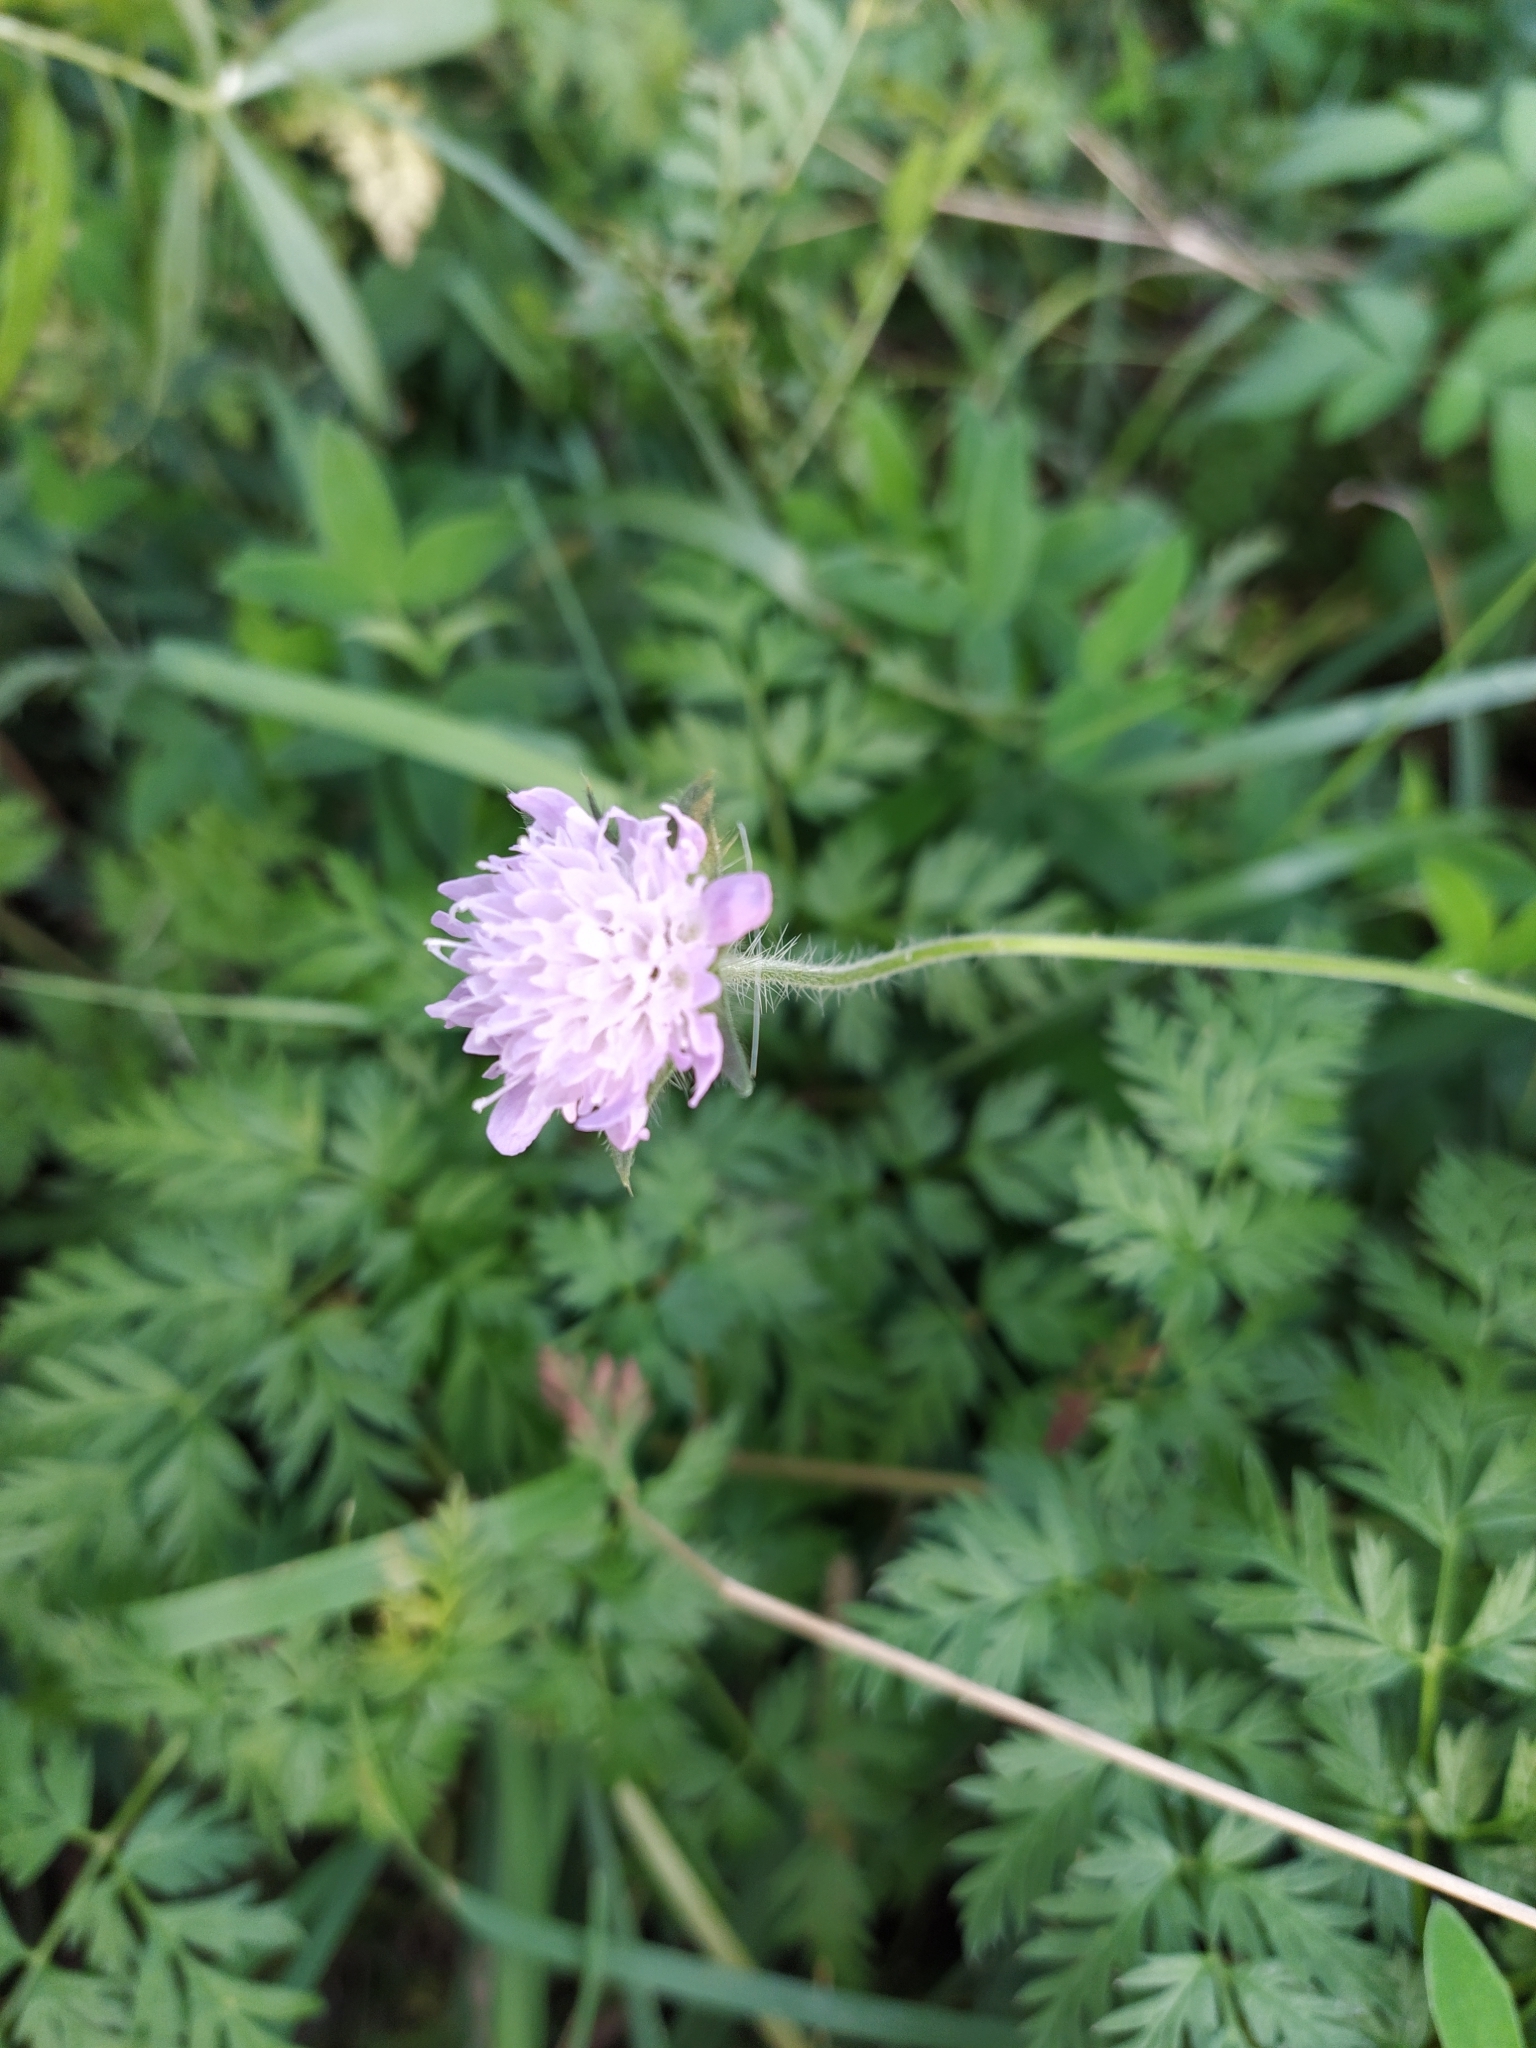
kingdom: Plantae
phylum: Tracheophyta
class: Magnoliopsida
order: Dipsacales
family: Caprifoliaceae
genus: Knautia
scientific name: Knautia arvensis
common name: Field scabiosa
